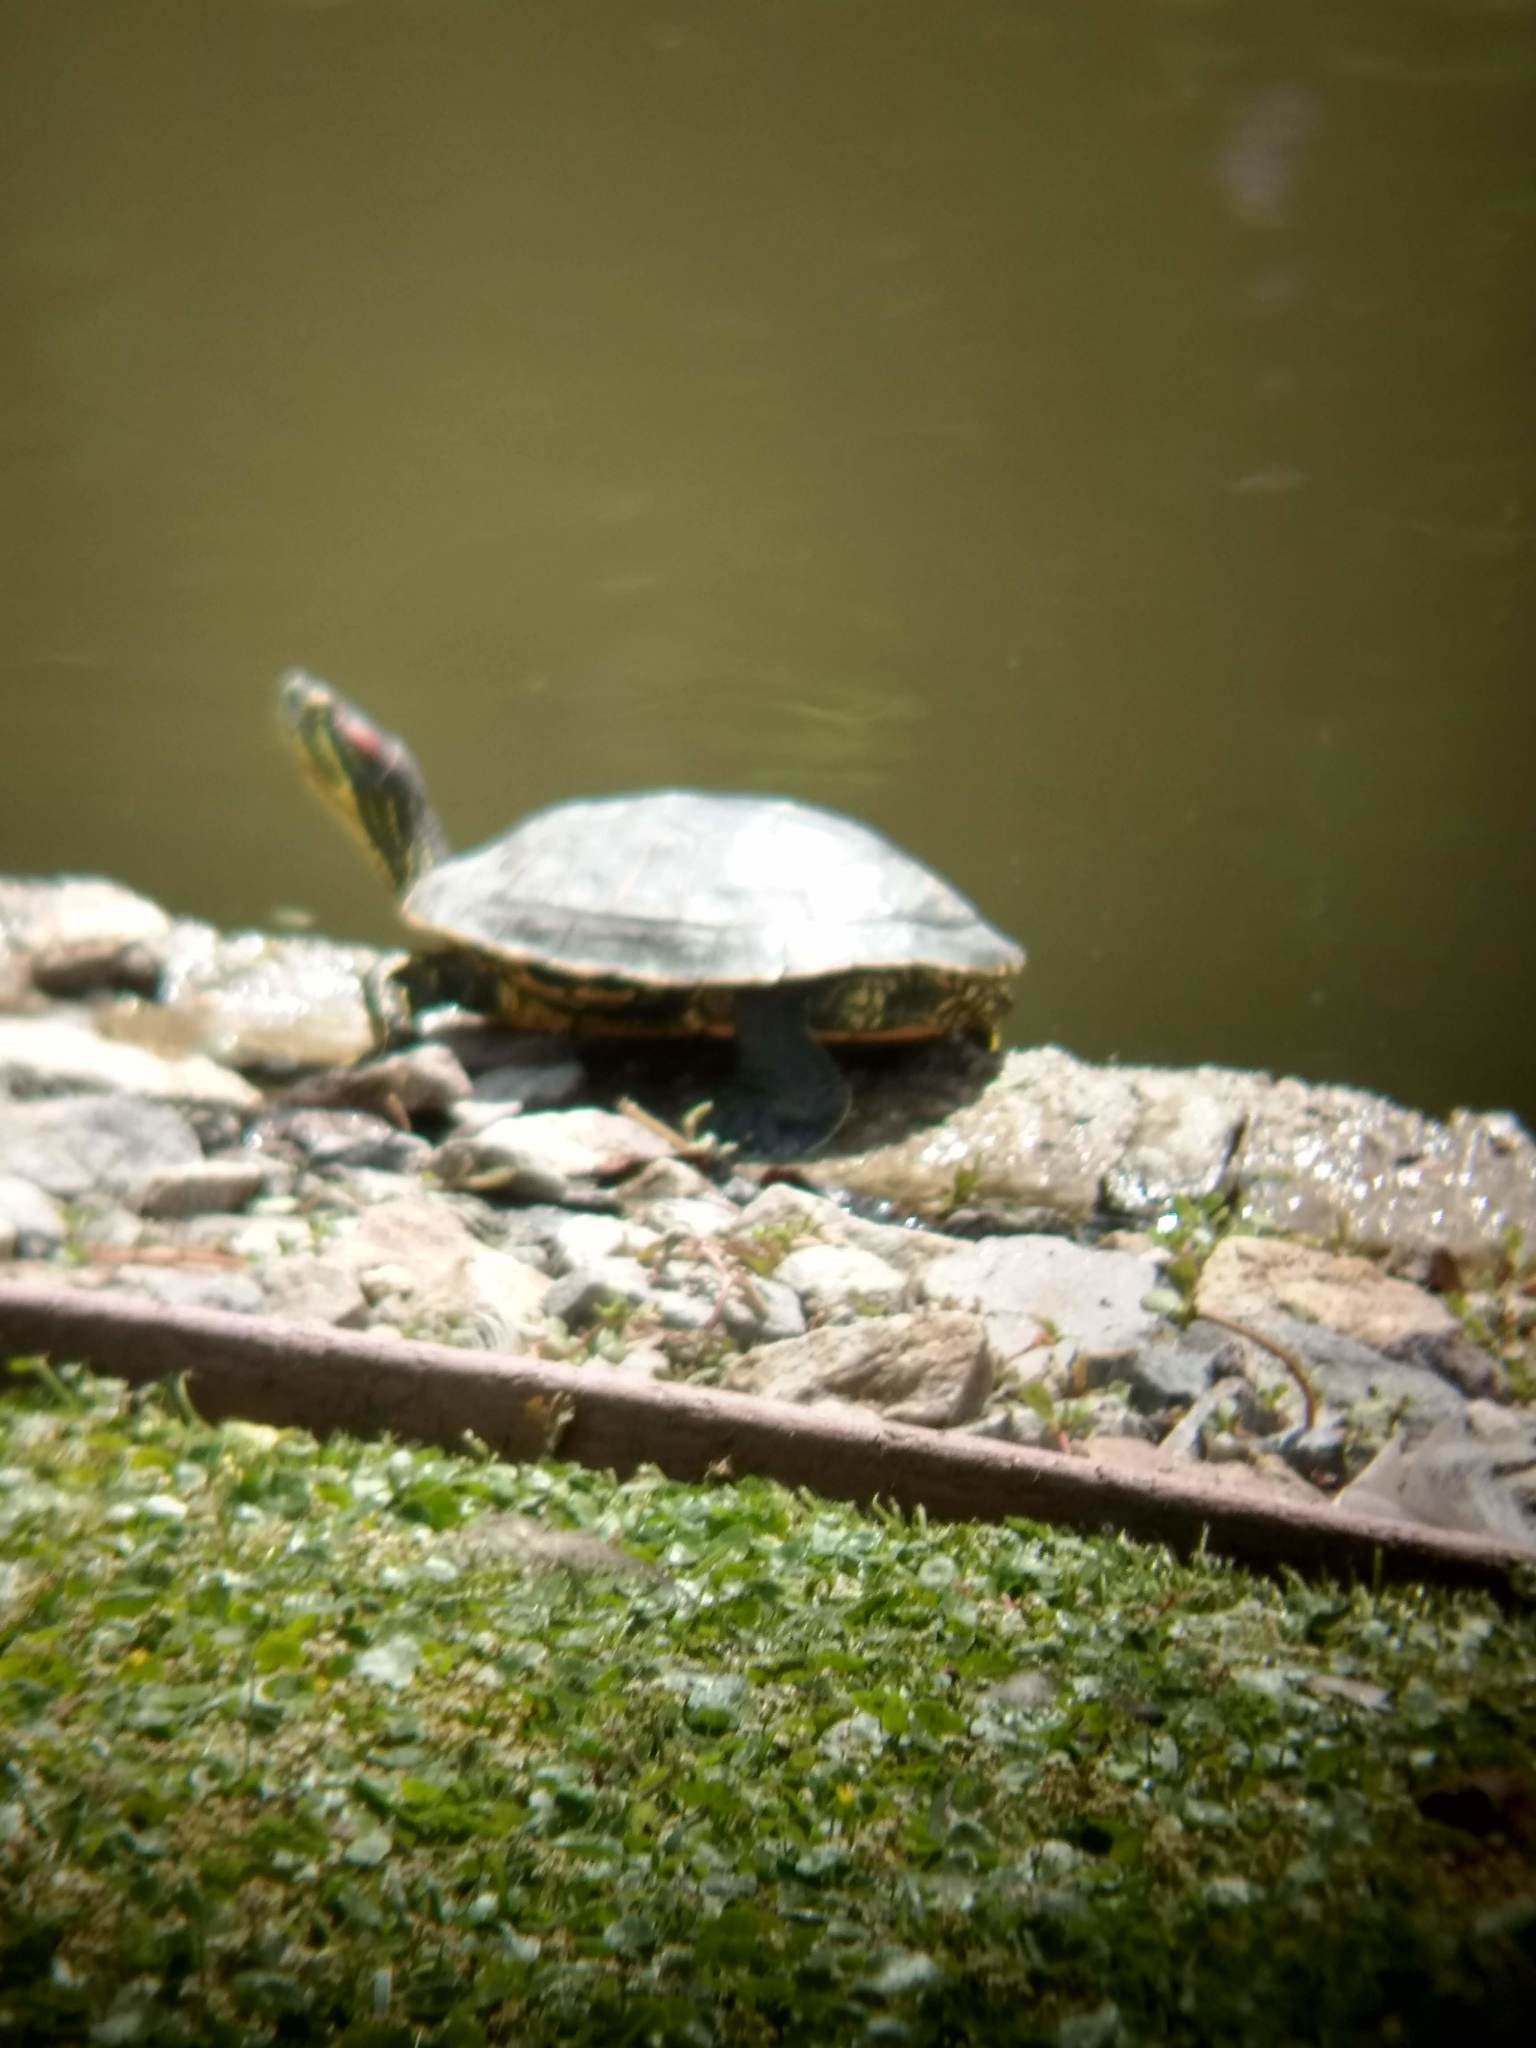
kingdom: Animalia
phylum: Chordata
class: Testudines
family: Emydidae
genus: Trachemys
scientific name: Trachemys scripta
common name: Slider
